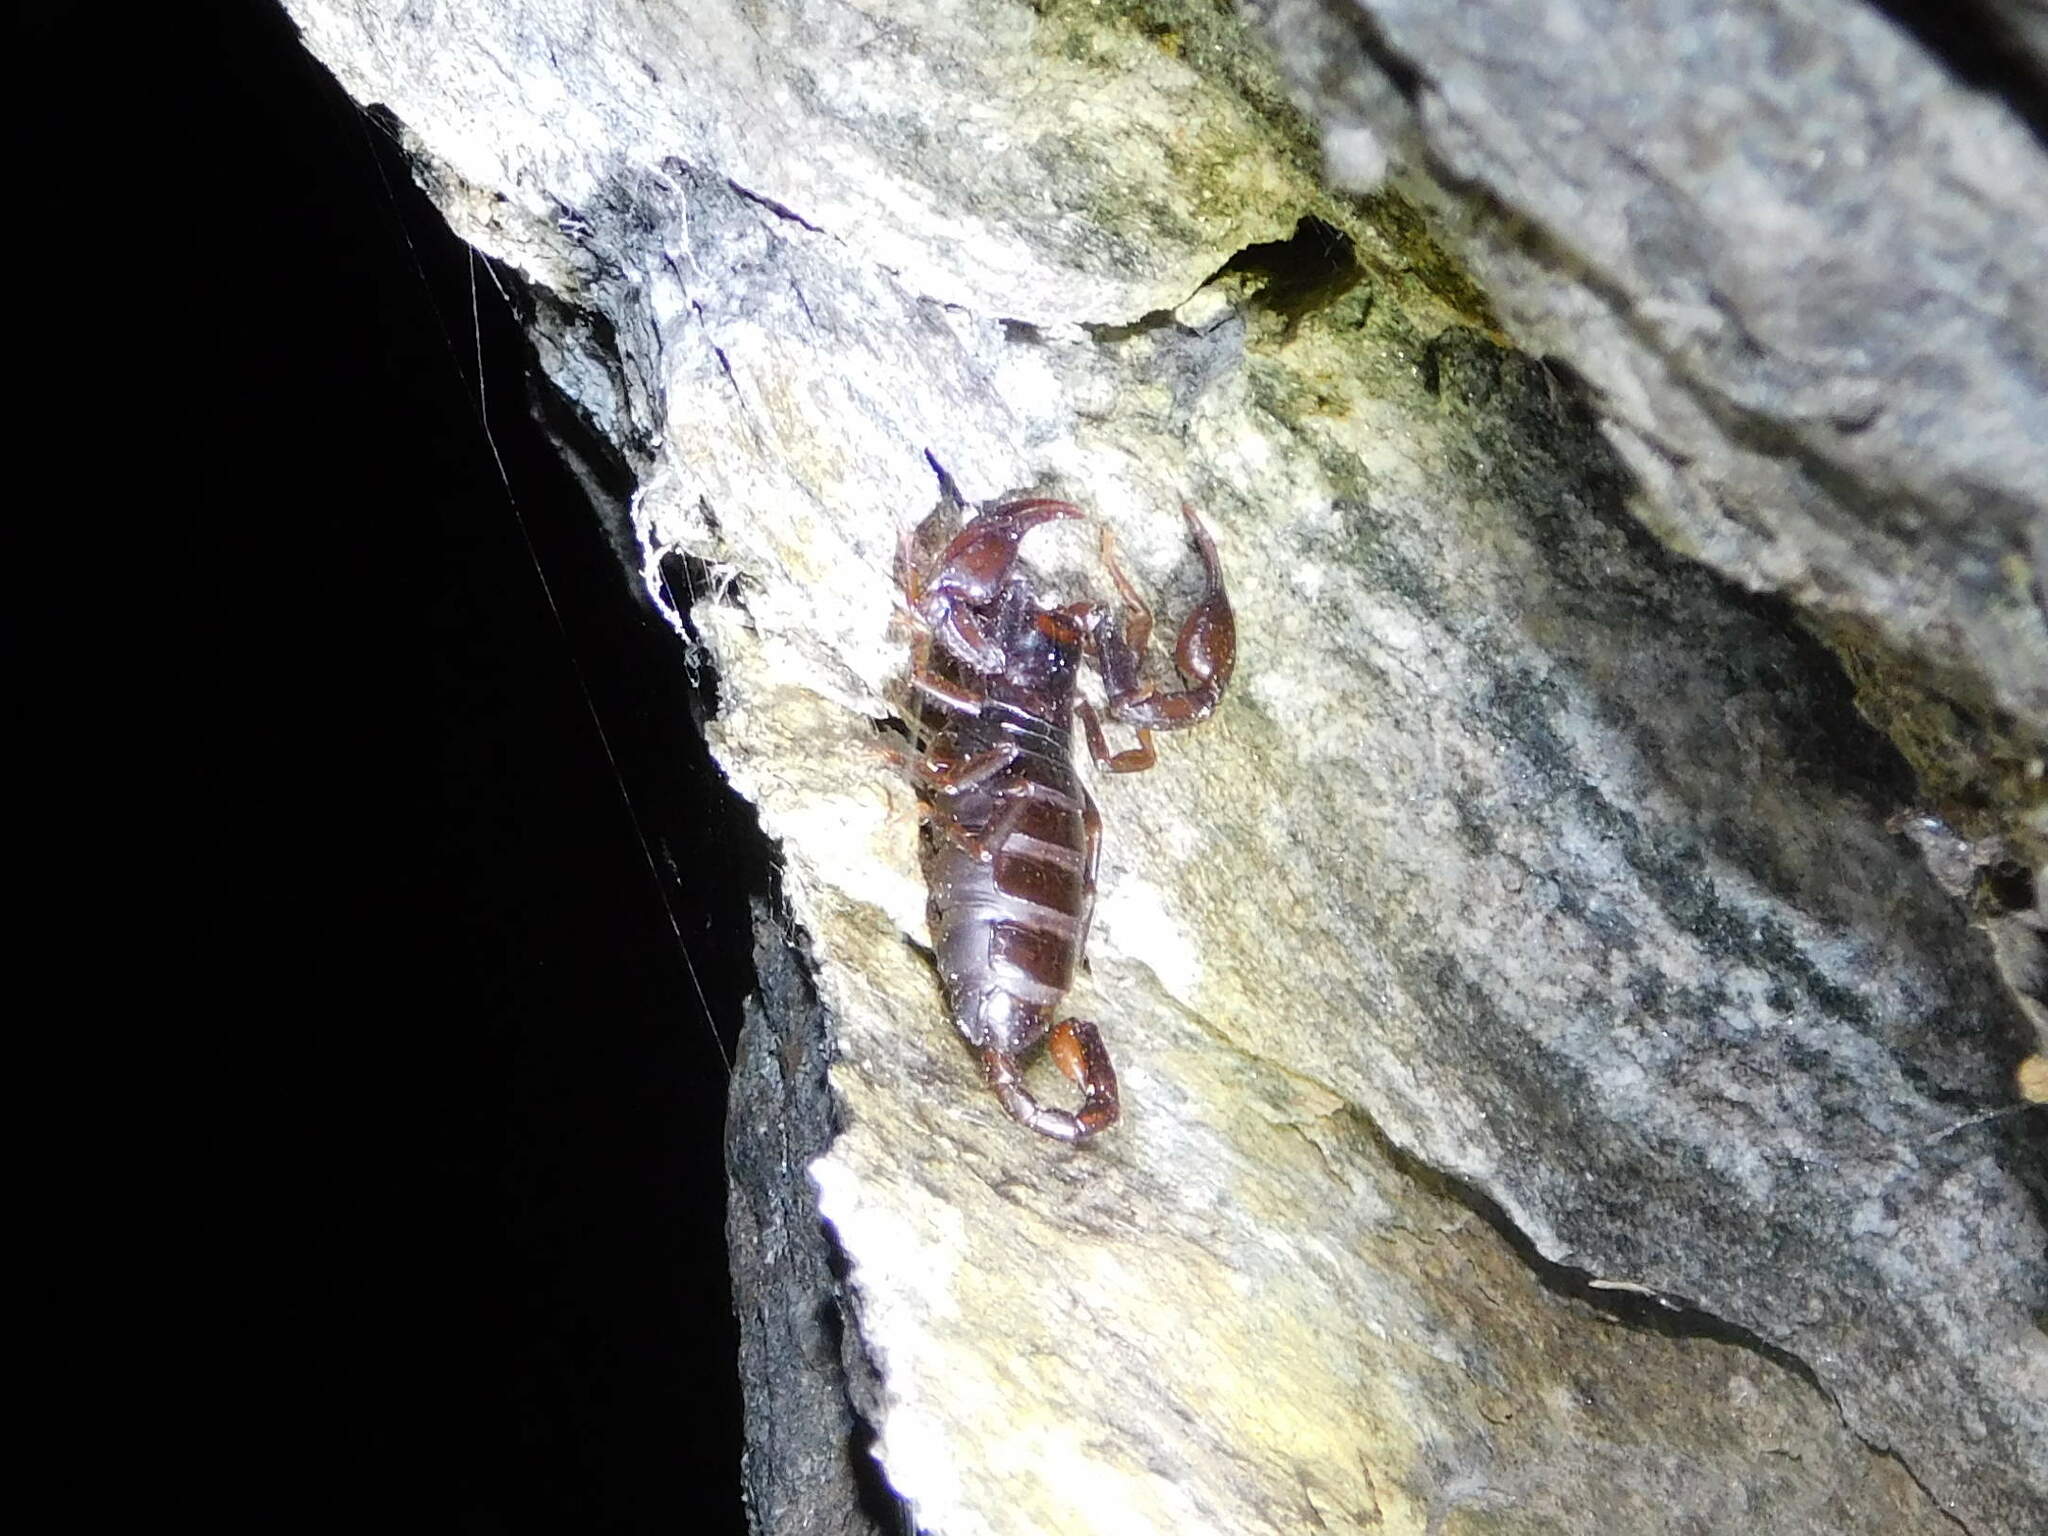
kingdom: Animalia
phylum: Arthropoda
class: Arachnida
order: Scorpiones
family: Euscorpiidae
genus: Alpiscorpius
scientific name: Alpiscorpius alpha
